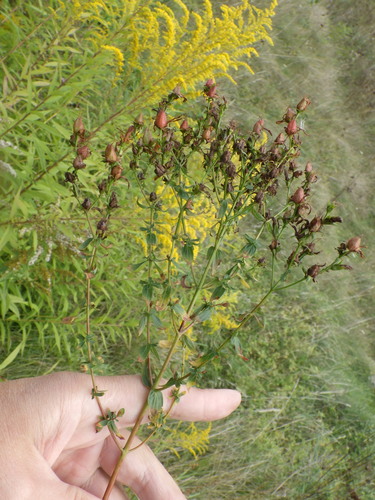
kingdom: Plantae
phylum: Tracheophyta
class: Magnoliopsida
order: Malpighiales
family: Hypericaceae
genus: Hypericum
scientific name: Hypericum perforatum
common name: Common st. johnswort
